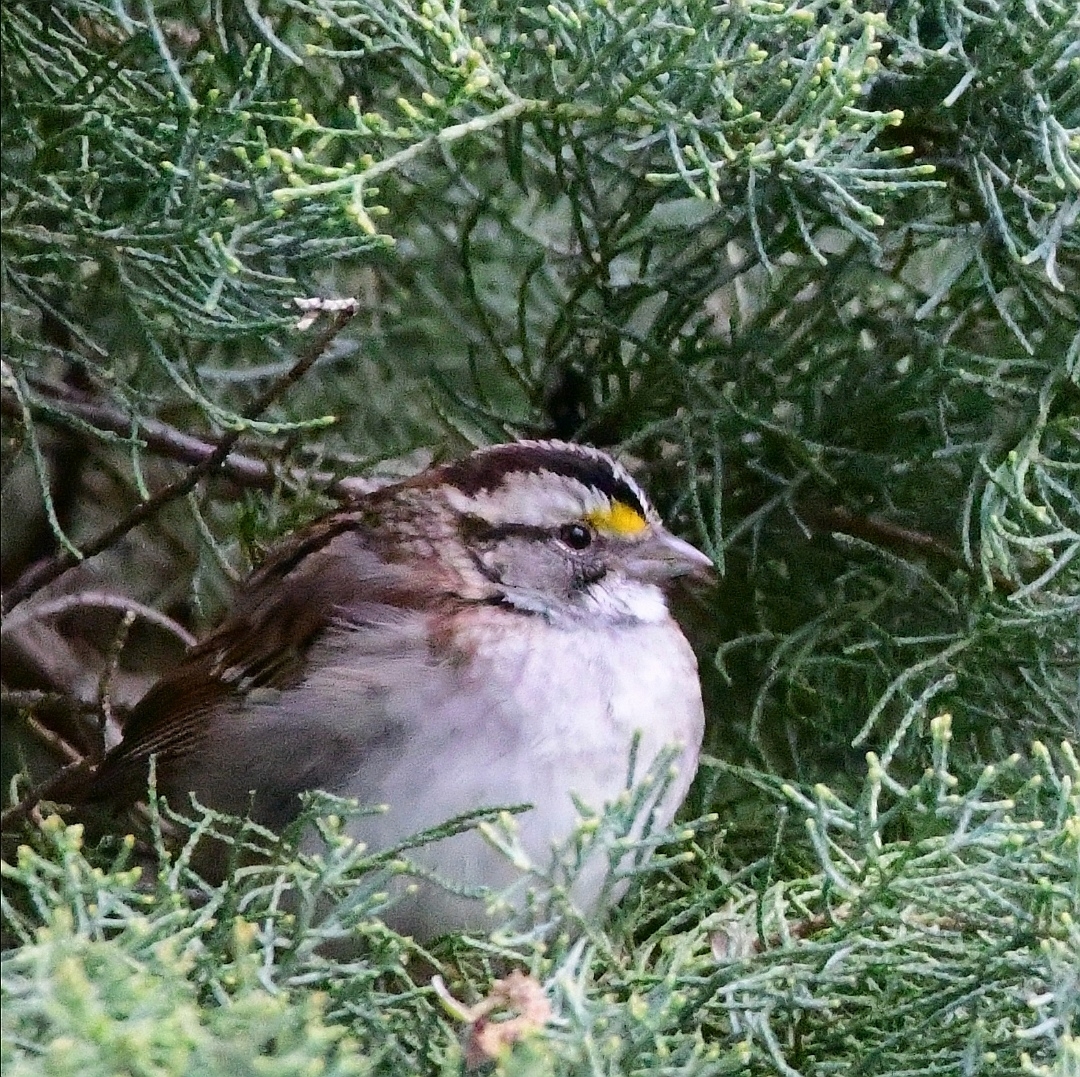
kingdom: Animalia
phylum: Chordata
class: Aves
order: Passeriformes
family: Passerellidae
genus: Zonotrichia
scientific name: Zonotrichia albicollis
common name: White-throated sparrow
